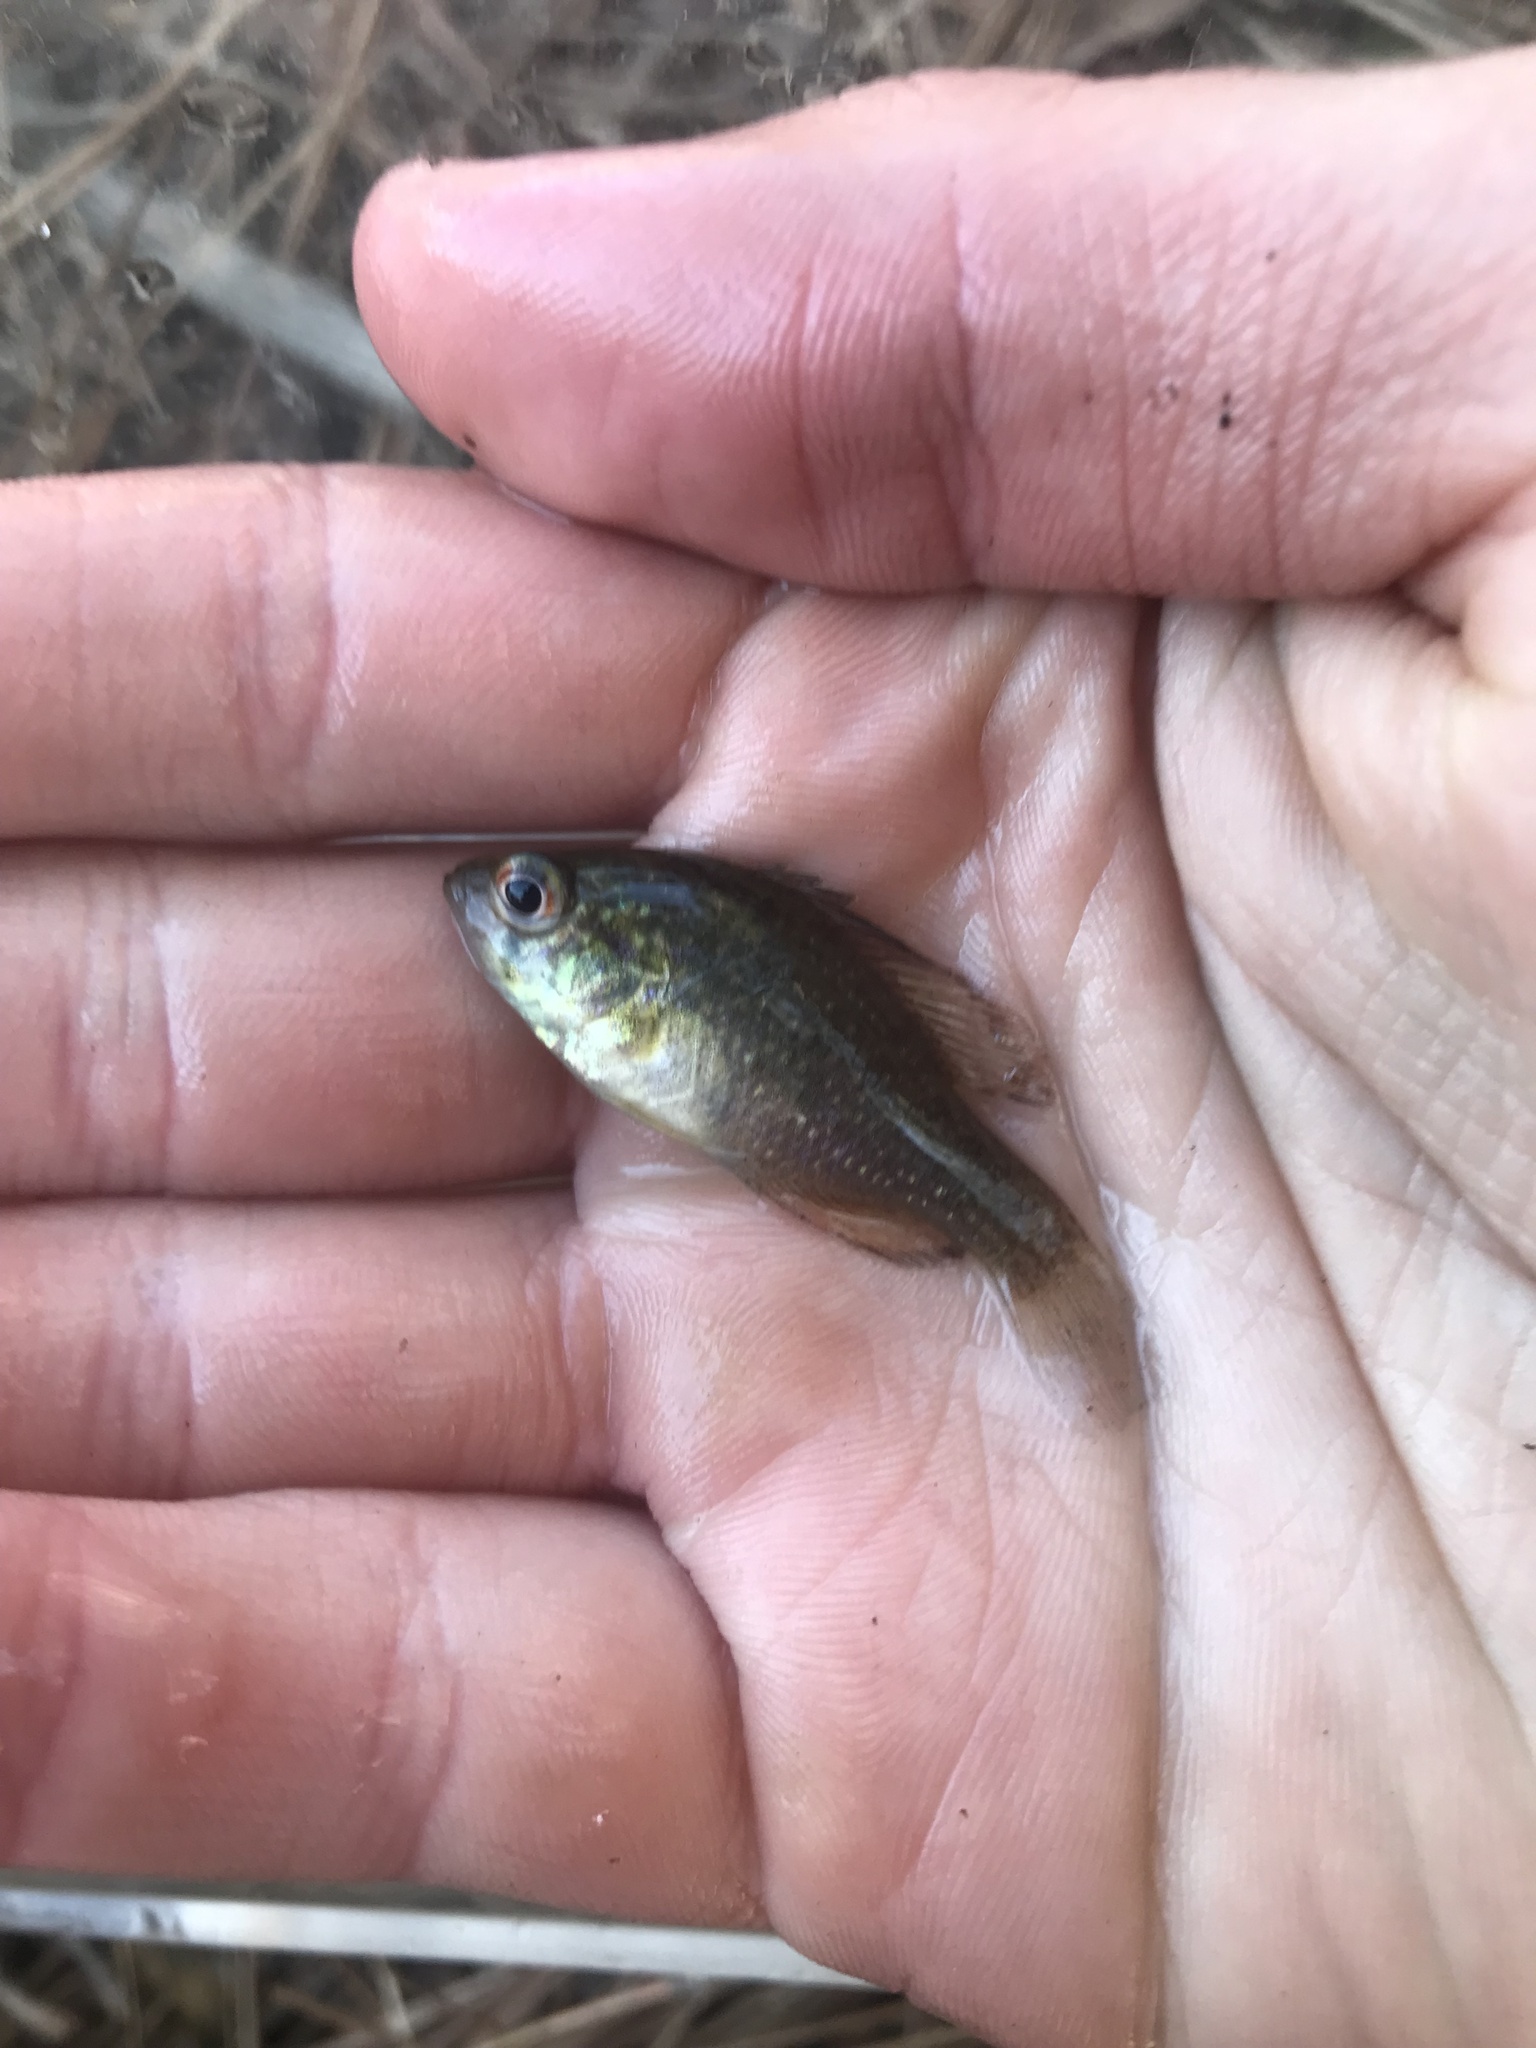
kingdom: Animalia
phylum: Chordata
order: Perciformes
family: Centrarchidae
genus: Enneacanthus
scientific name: Enneacanthus gloriosus
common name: Bluespotted sunfish
